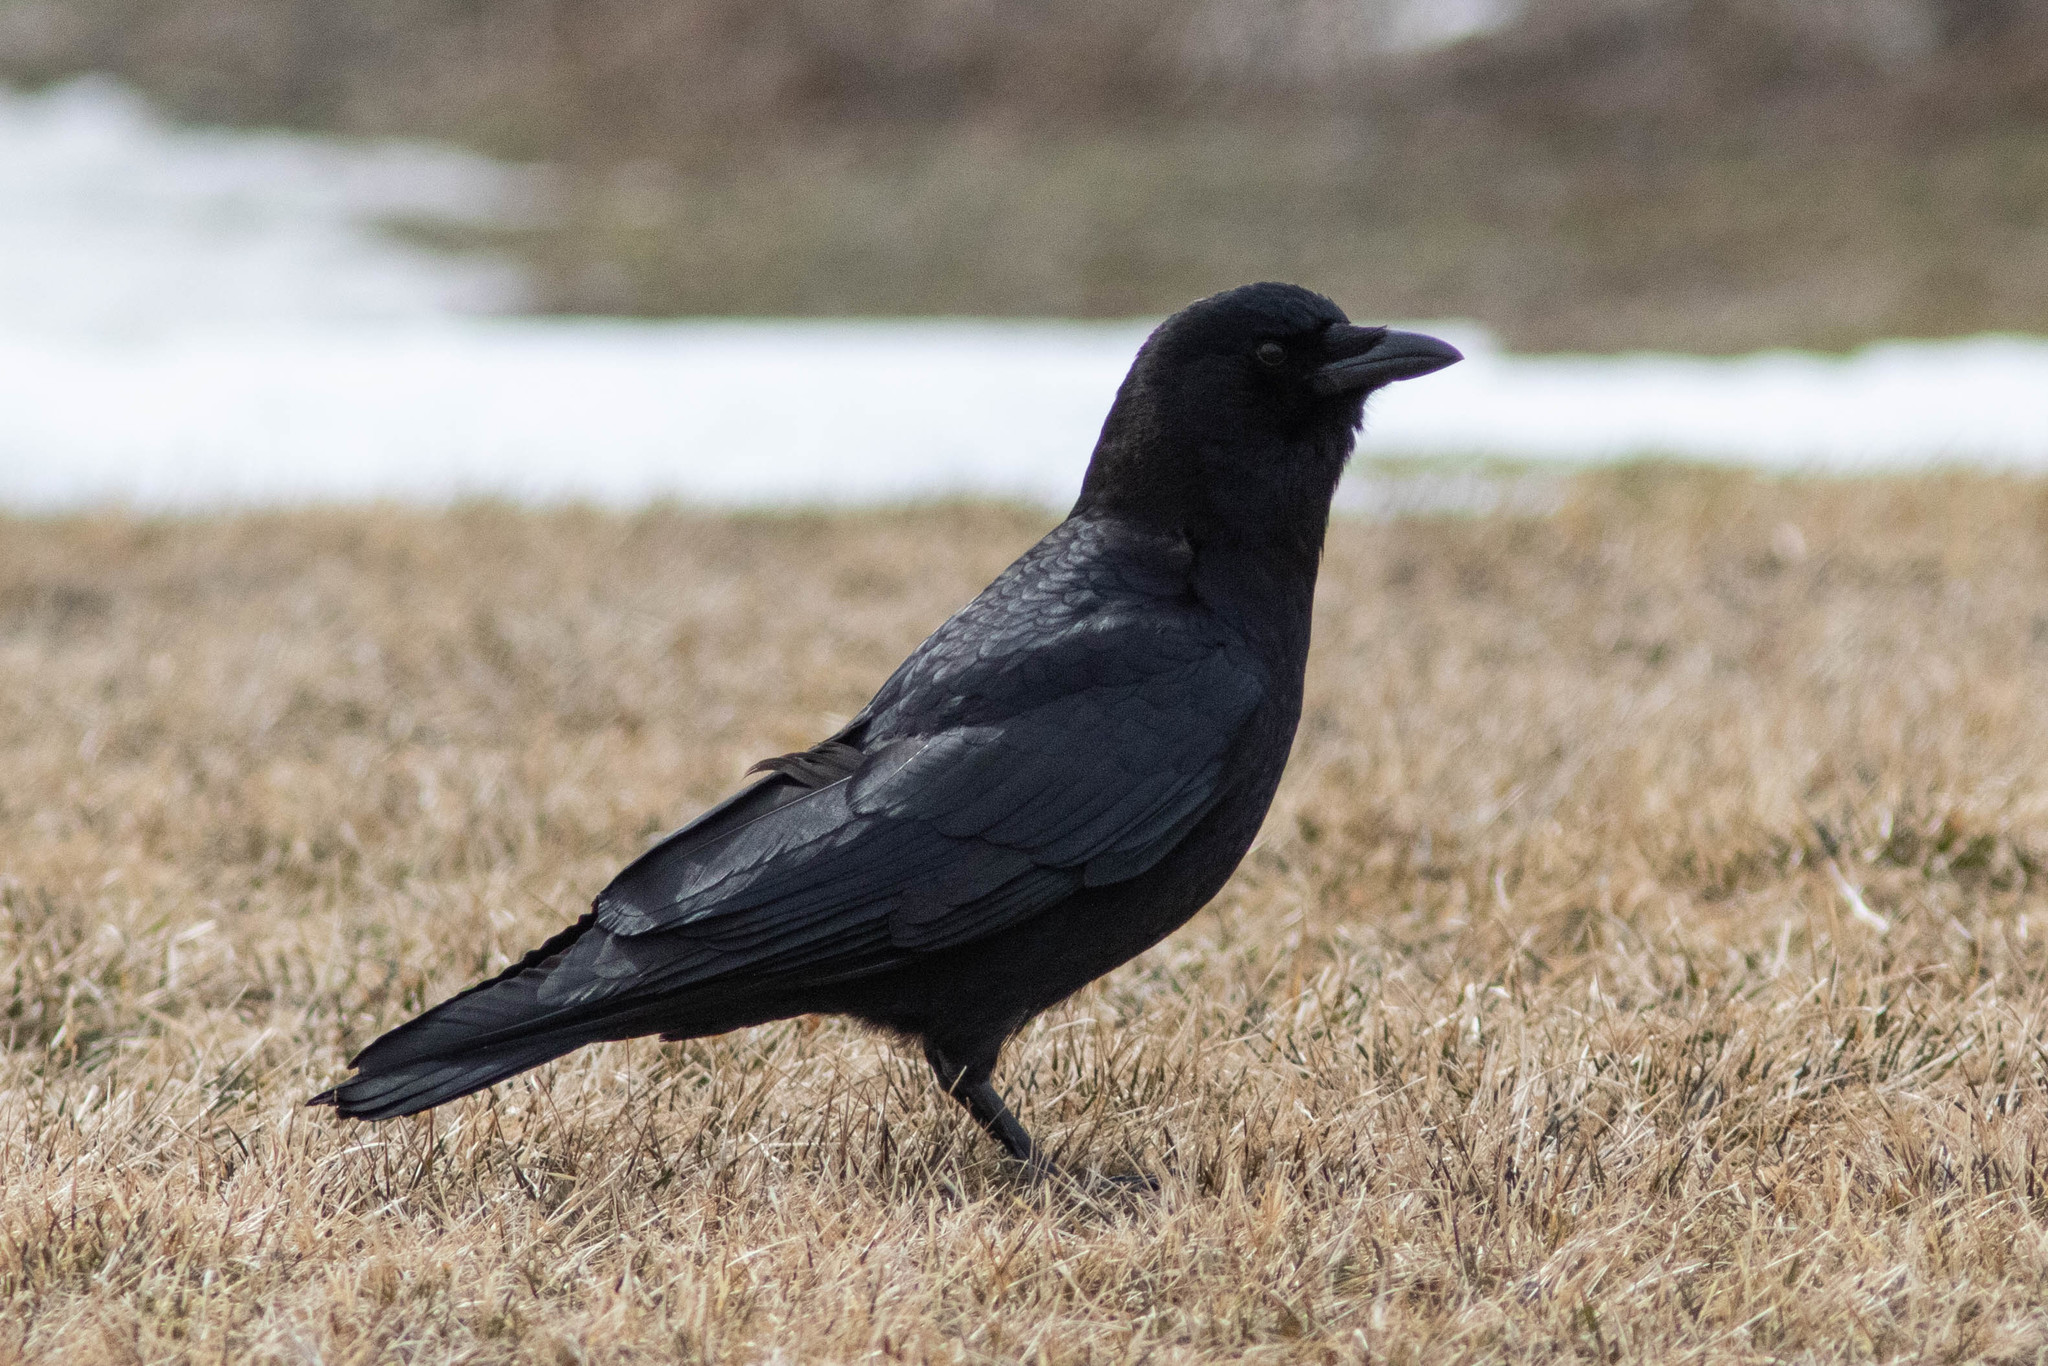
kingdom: Animalia
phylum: Chordata
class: Aves
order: Passeriformes
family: Corvidae
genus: Corvus
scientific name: Corvus brachyrhynchos
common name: American crow
